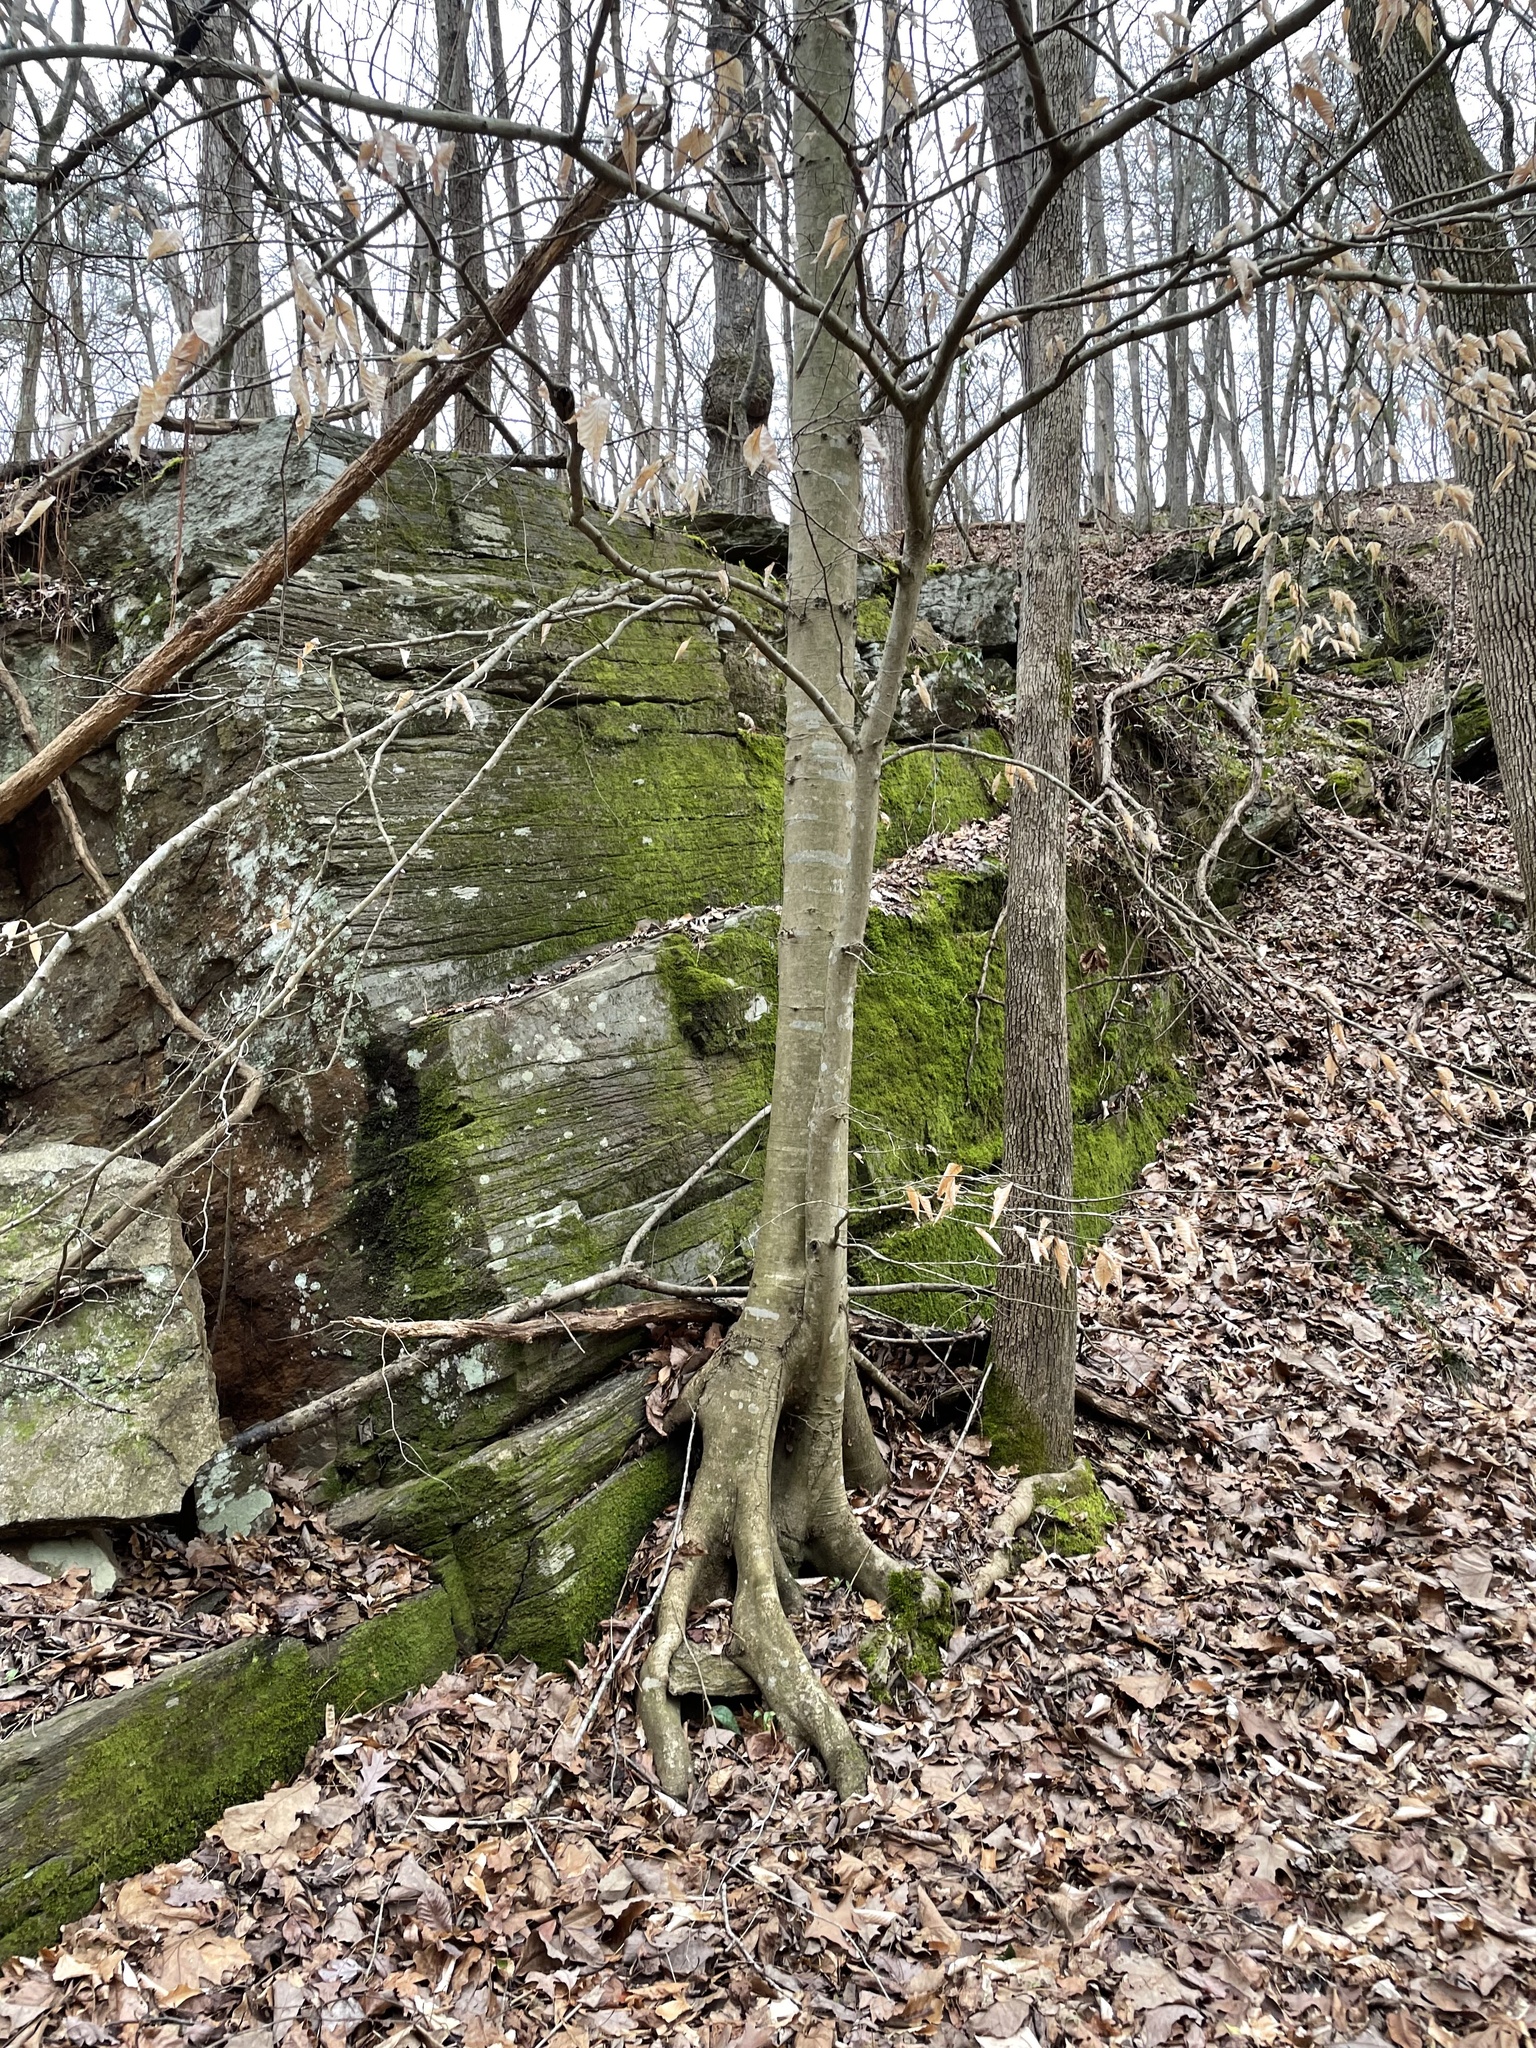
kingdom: Plantae
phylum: Tracheophyta
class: Magnoliopsida
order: Fagales
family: Fagaceae
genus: Fagus
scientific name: Fagus grandifolia
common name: American beech
